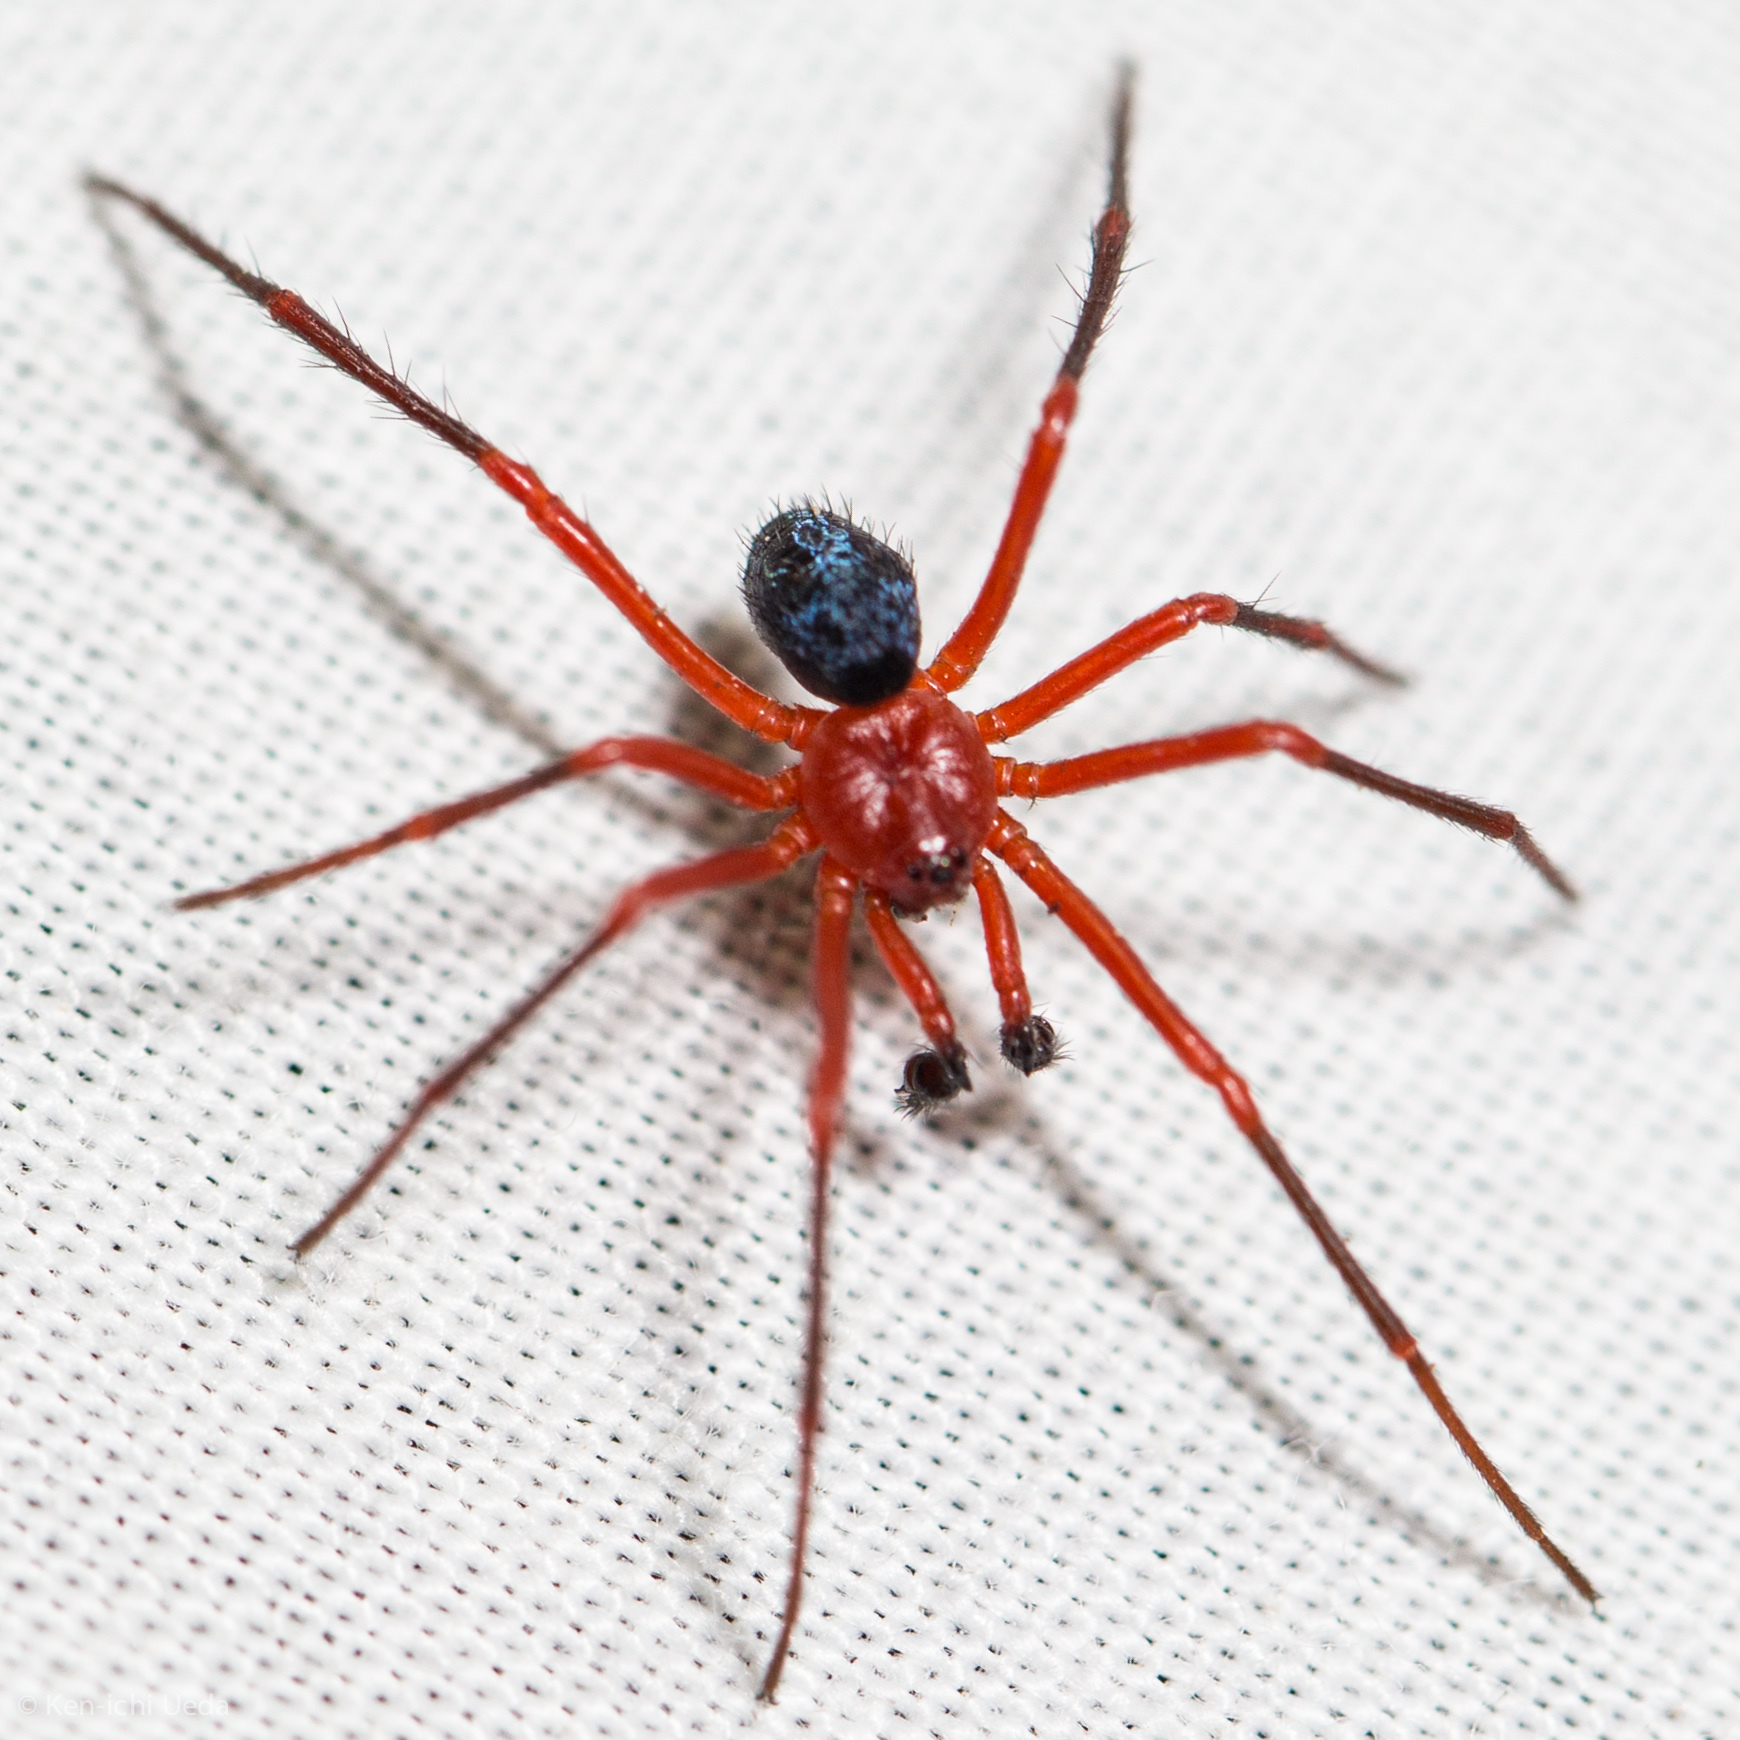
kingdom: Animalia
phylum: Arthropoda
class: Arachnida
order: Araneae
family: Nicodamidae
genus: Nicodamus
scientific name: Nicodamus peregrinus
